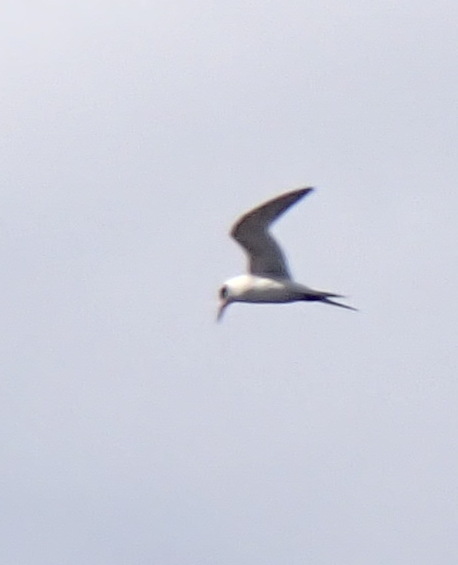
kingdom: Animalia
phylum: Chordata
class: Aves
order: Charadriiformes
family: Laridae
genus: Sterna
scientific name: Sterna forsteri
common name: Forster's tern
